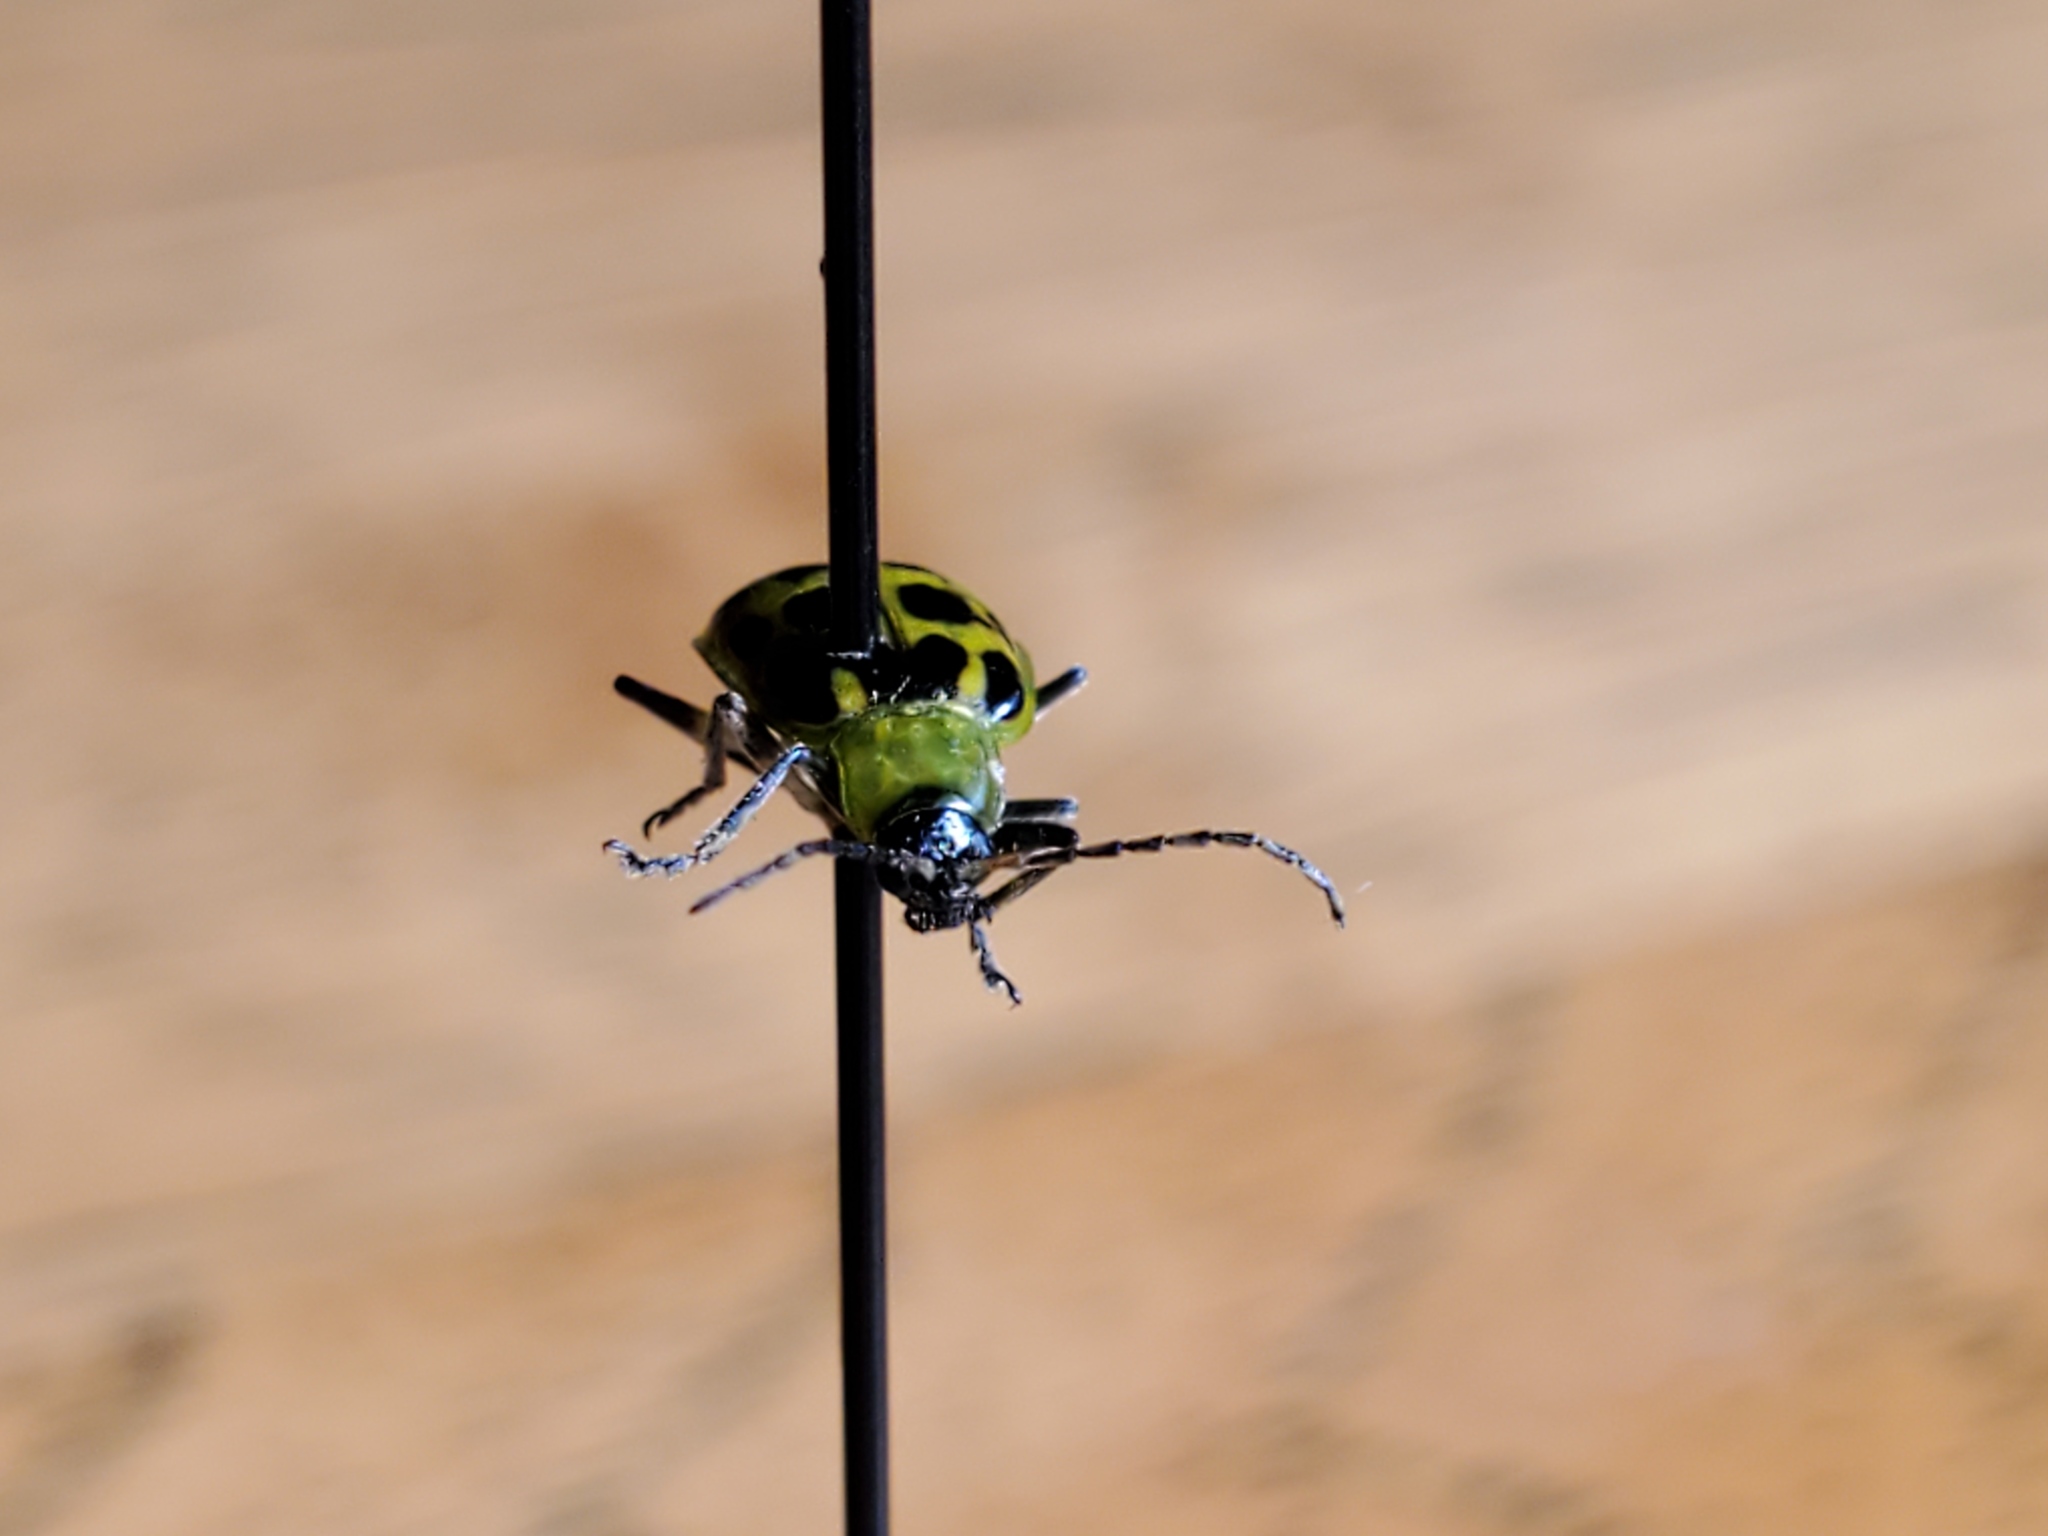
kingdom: Animalia
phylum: Arthropoda
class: Insecta
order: Coleoptera
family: Chrysomelidae
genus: Diabrotica
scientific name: Diabrotica undecimpunctata
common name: Spotted cucumber beetle
